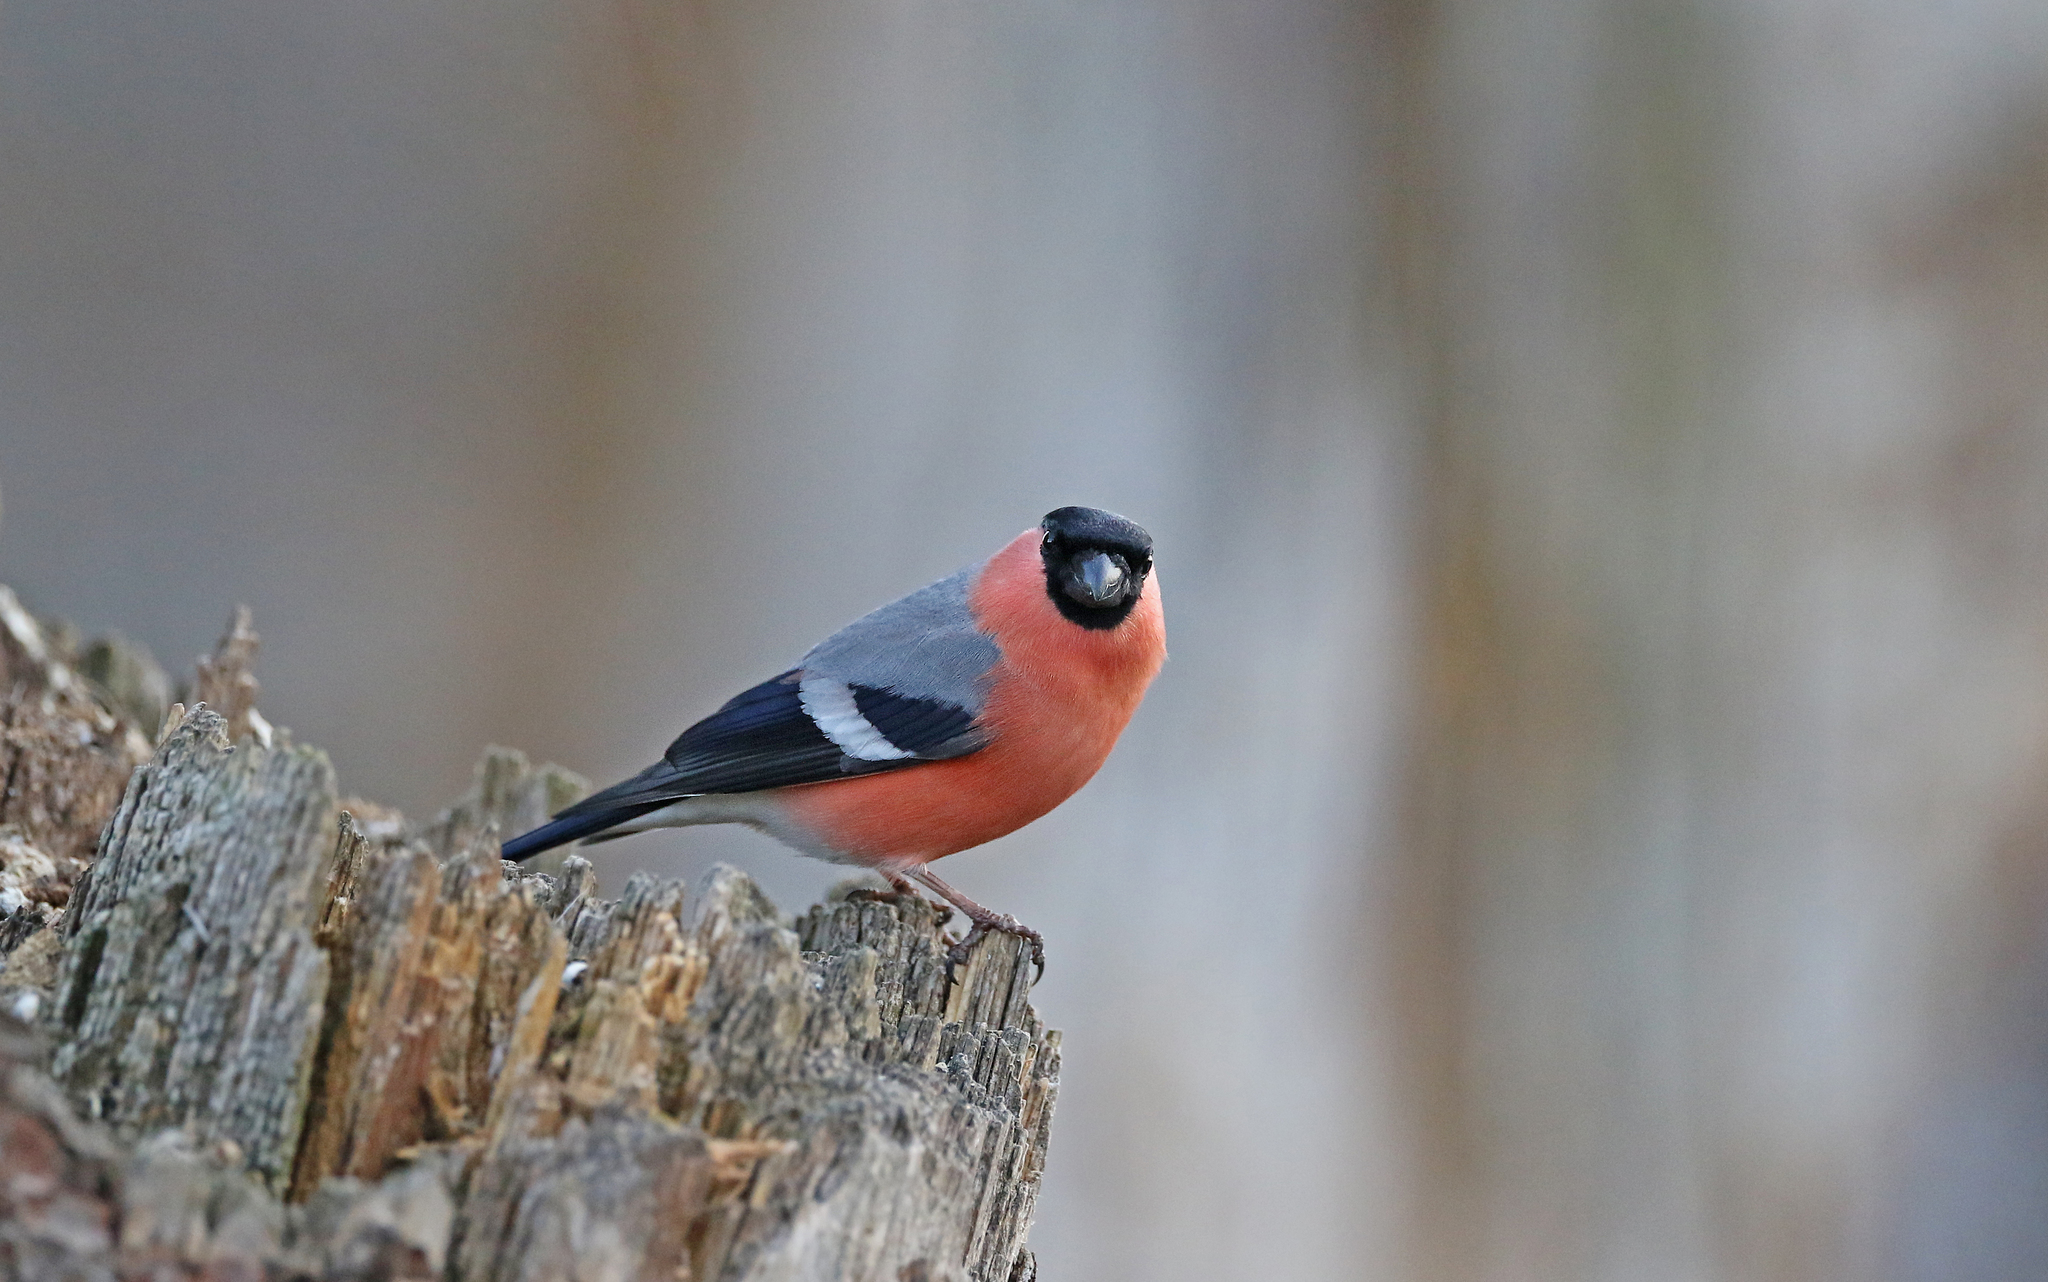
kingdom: Animalia
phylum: Chordata
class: Aves
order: Passeriformes
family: Fringillidae
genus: Pyrrhula
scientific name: Pyrrhula pyrrhula
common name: Eurasian bullfinch
